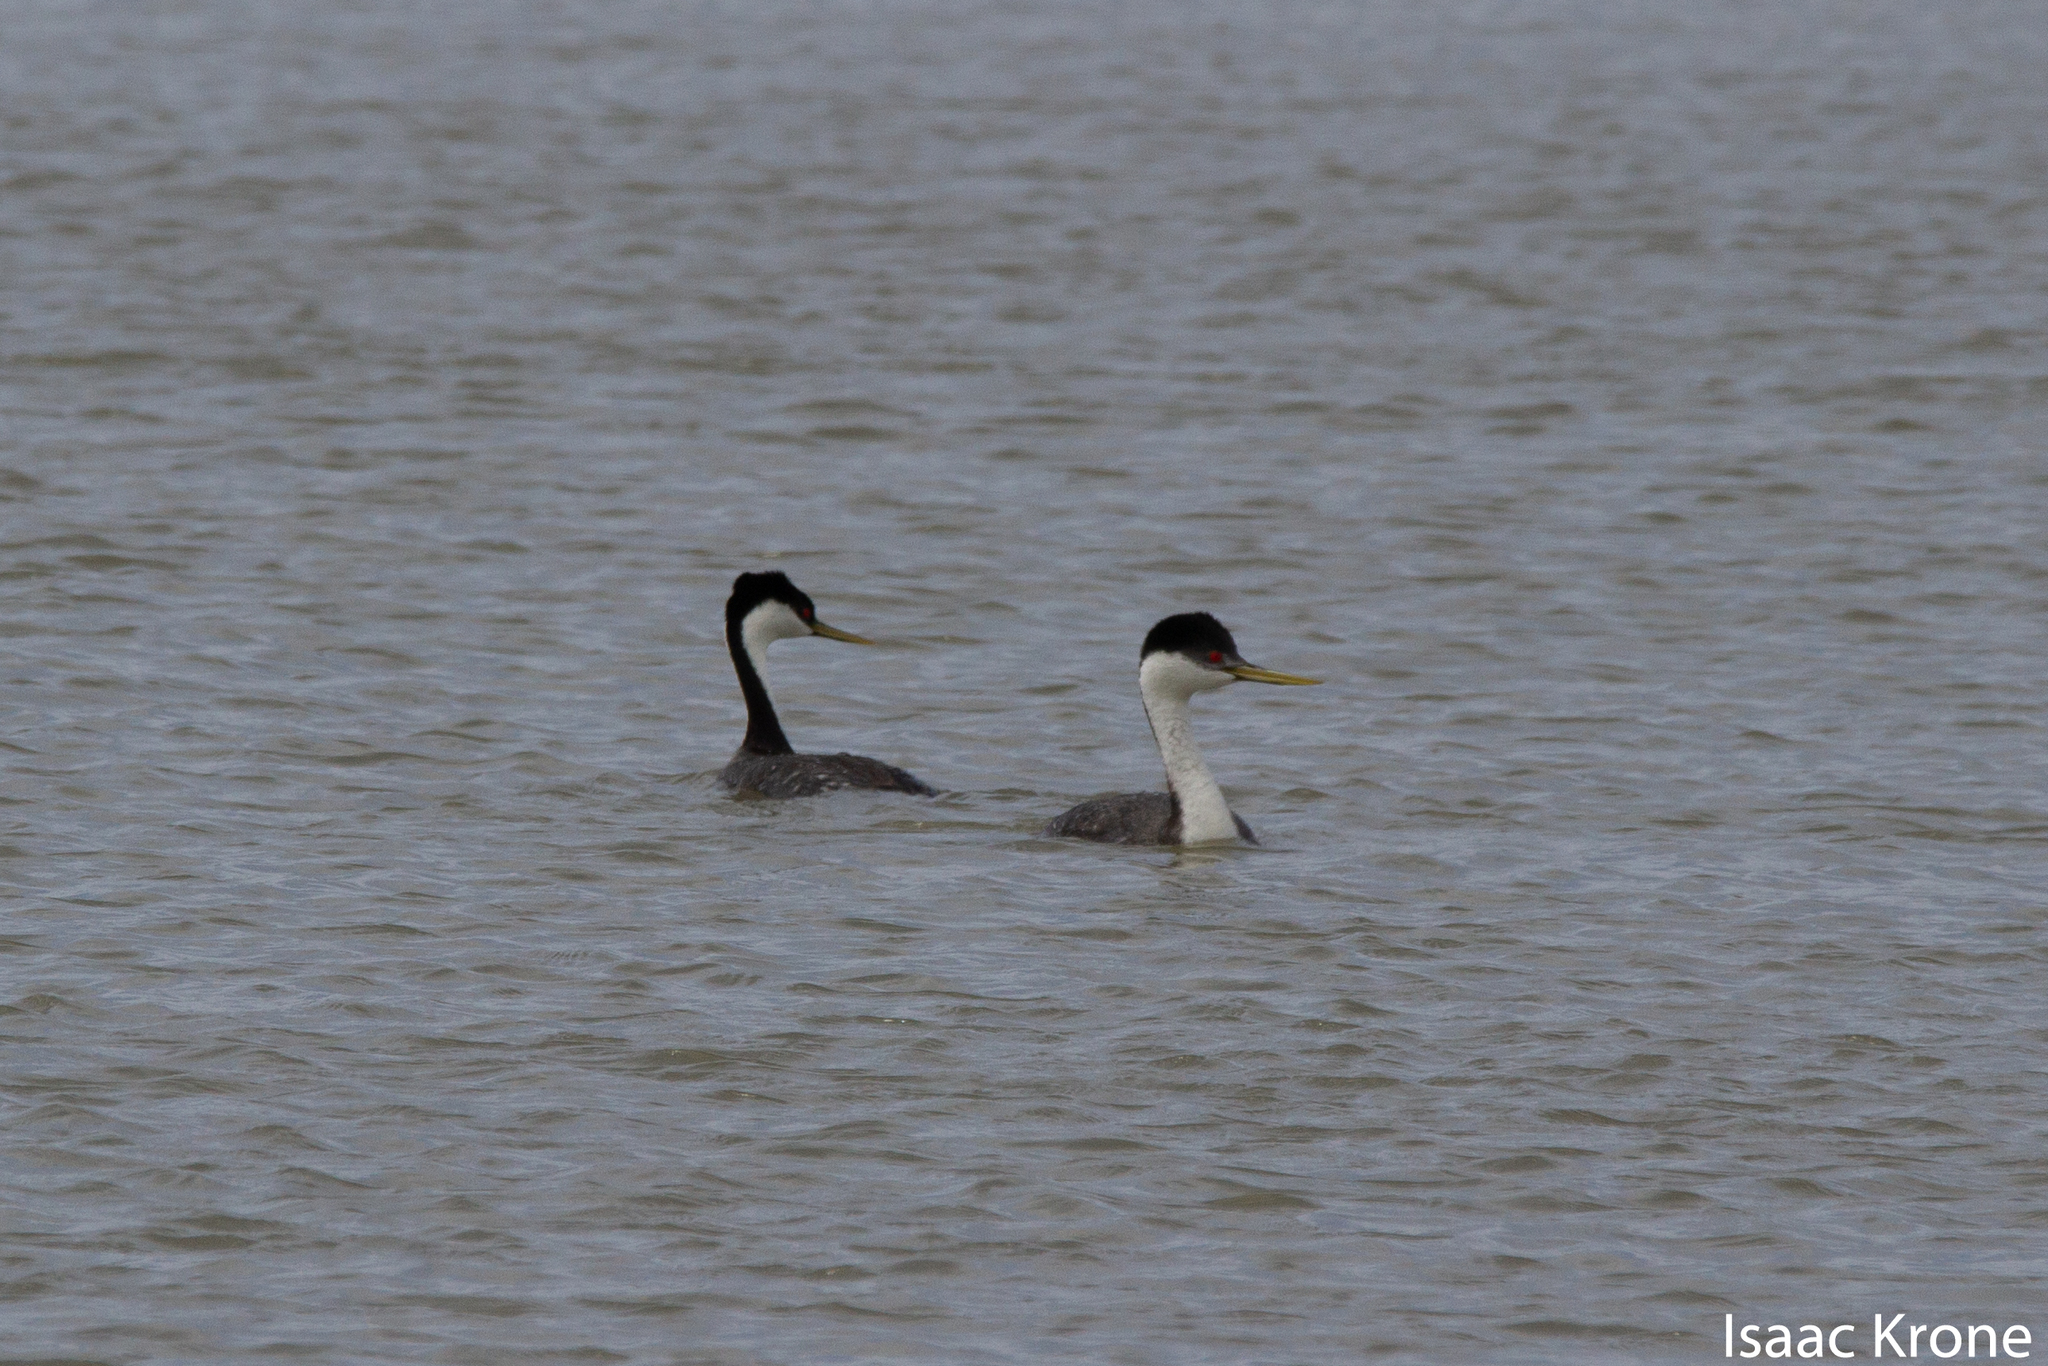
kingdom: Animalia
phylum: Chordata
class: Aves
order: Podicipediformes
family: Podicipedidae
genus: Aechmophorus
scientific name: Aechmophorus occidentalis
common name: Western grebe
